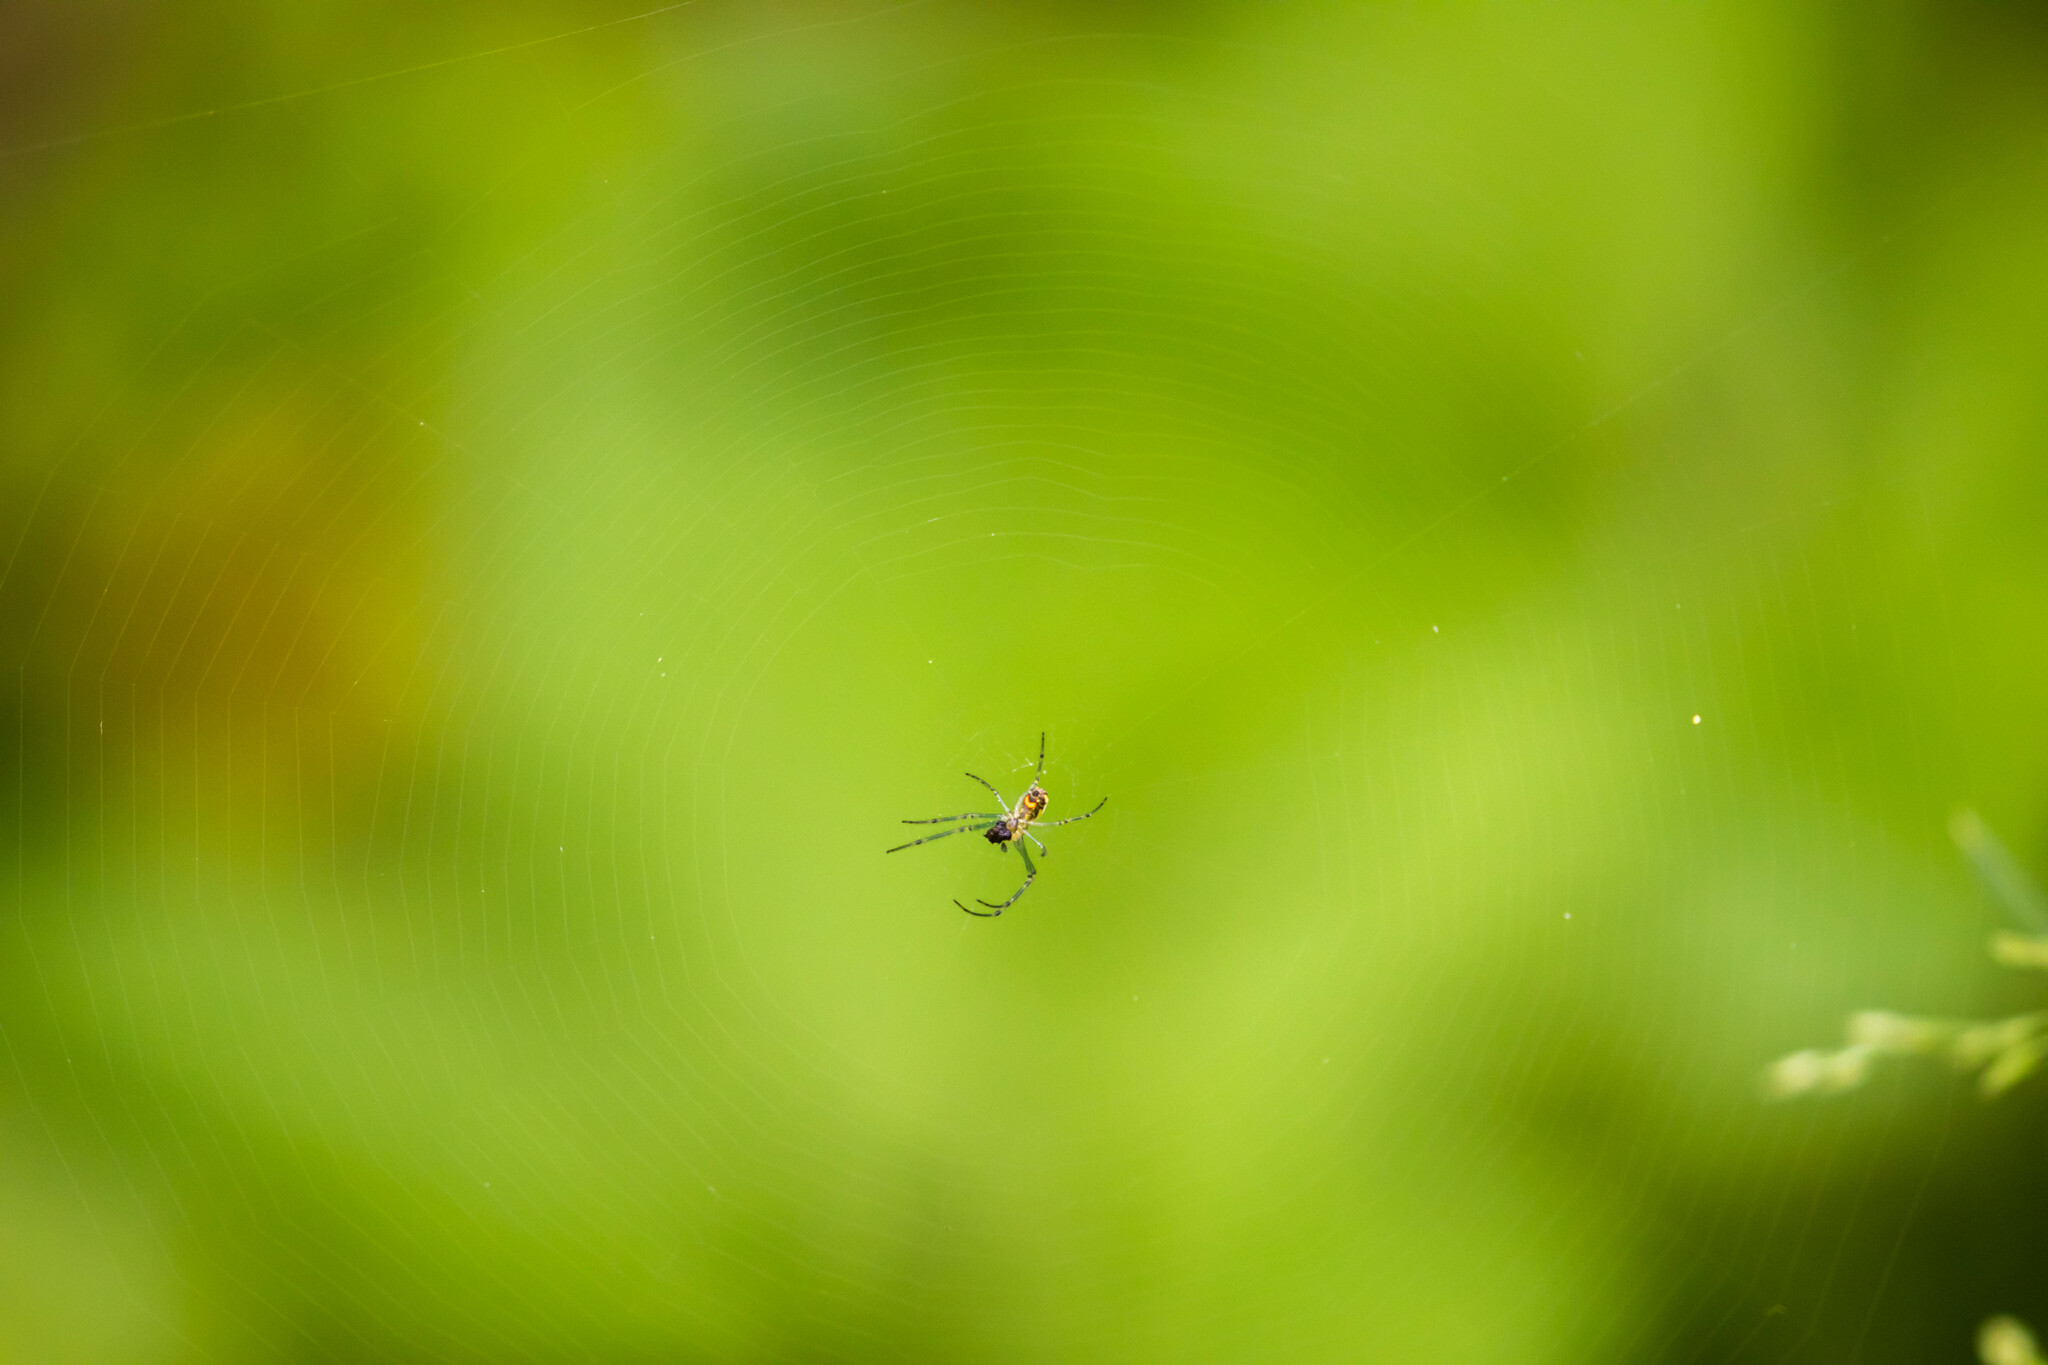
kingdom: Animalia
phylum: Arthropoda
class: Arachnida
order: Araneae
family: Tetragnathidae
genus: Leucauge
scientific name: Leucauge venusta
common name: Longjawed orb weavers
